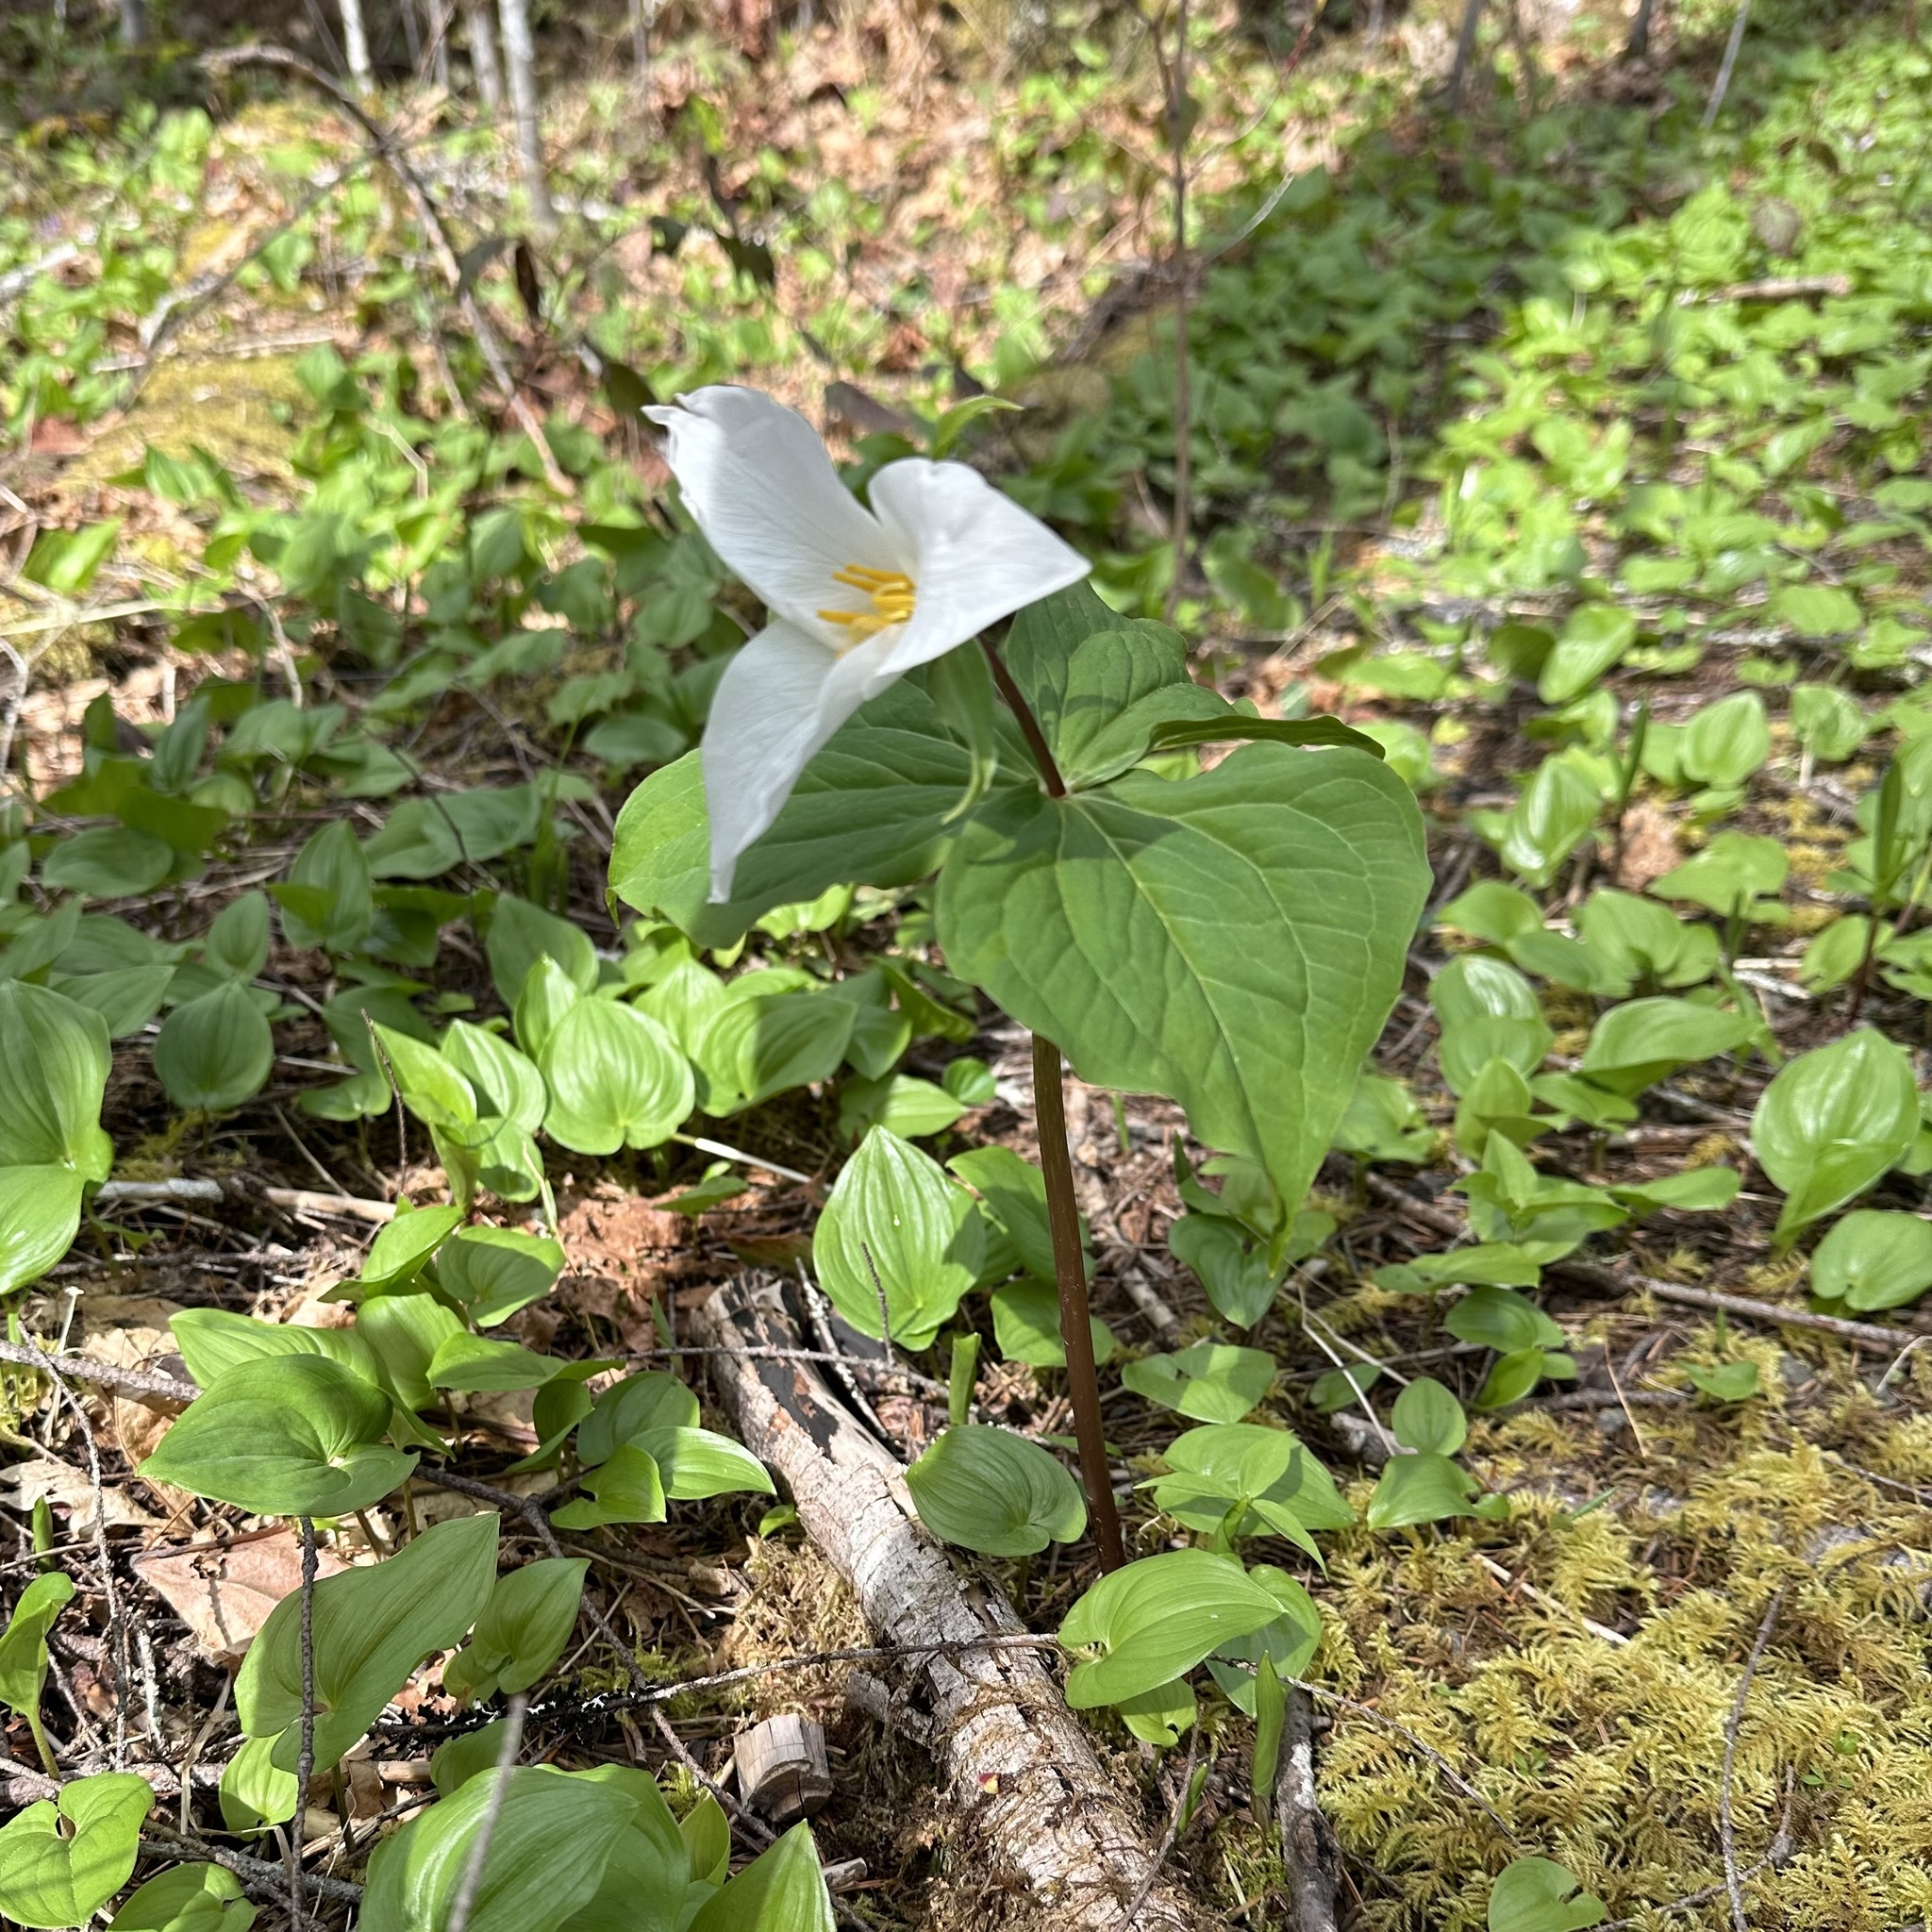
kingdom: Plantae
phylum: Tracheophyta
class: Liliopsida
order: Liliales
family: Melanthiaceae
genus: Trillium
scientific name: Trillium ovatum
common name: Pacific trillium
